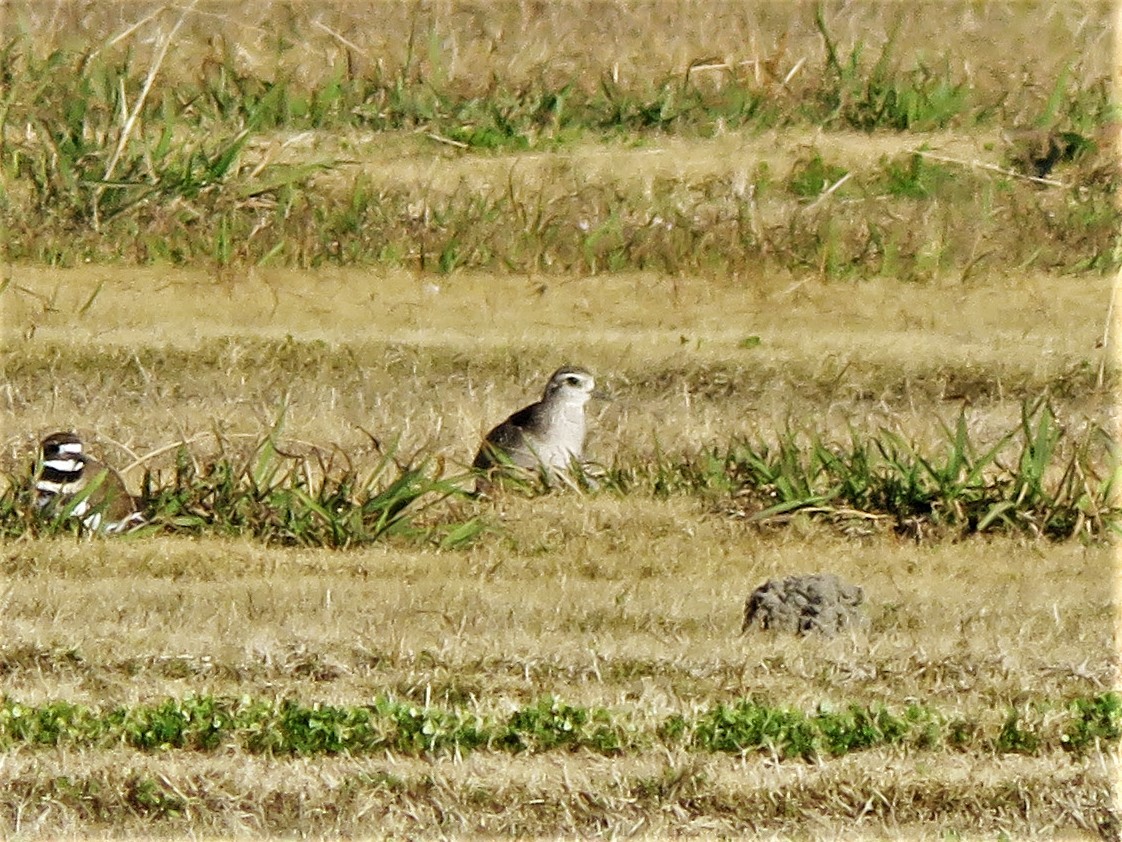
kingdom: Animalia
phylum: Chordata
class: Aves
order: Charadriiformes
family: Charadriidae
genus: Pluvialis
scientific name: Pluvialis dominica
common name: American golden plover
